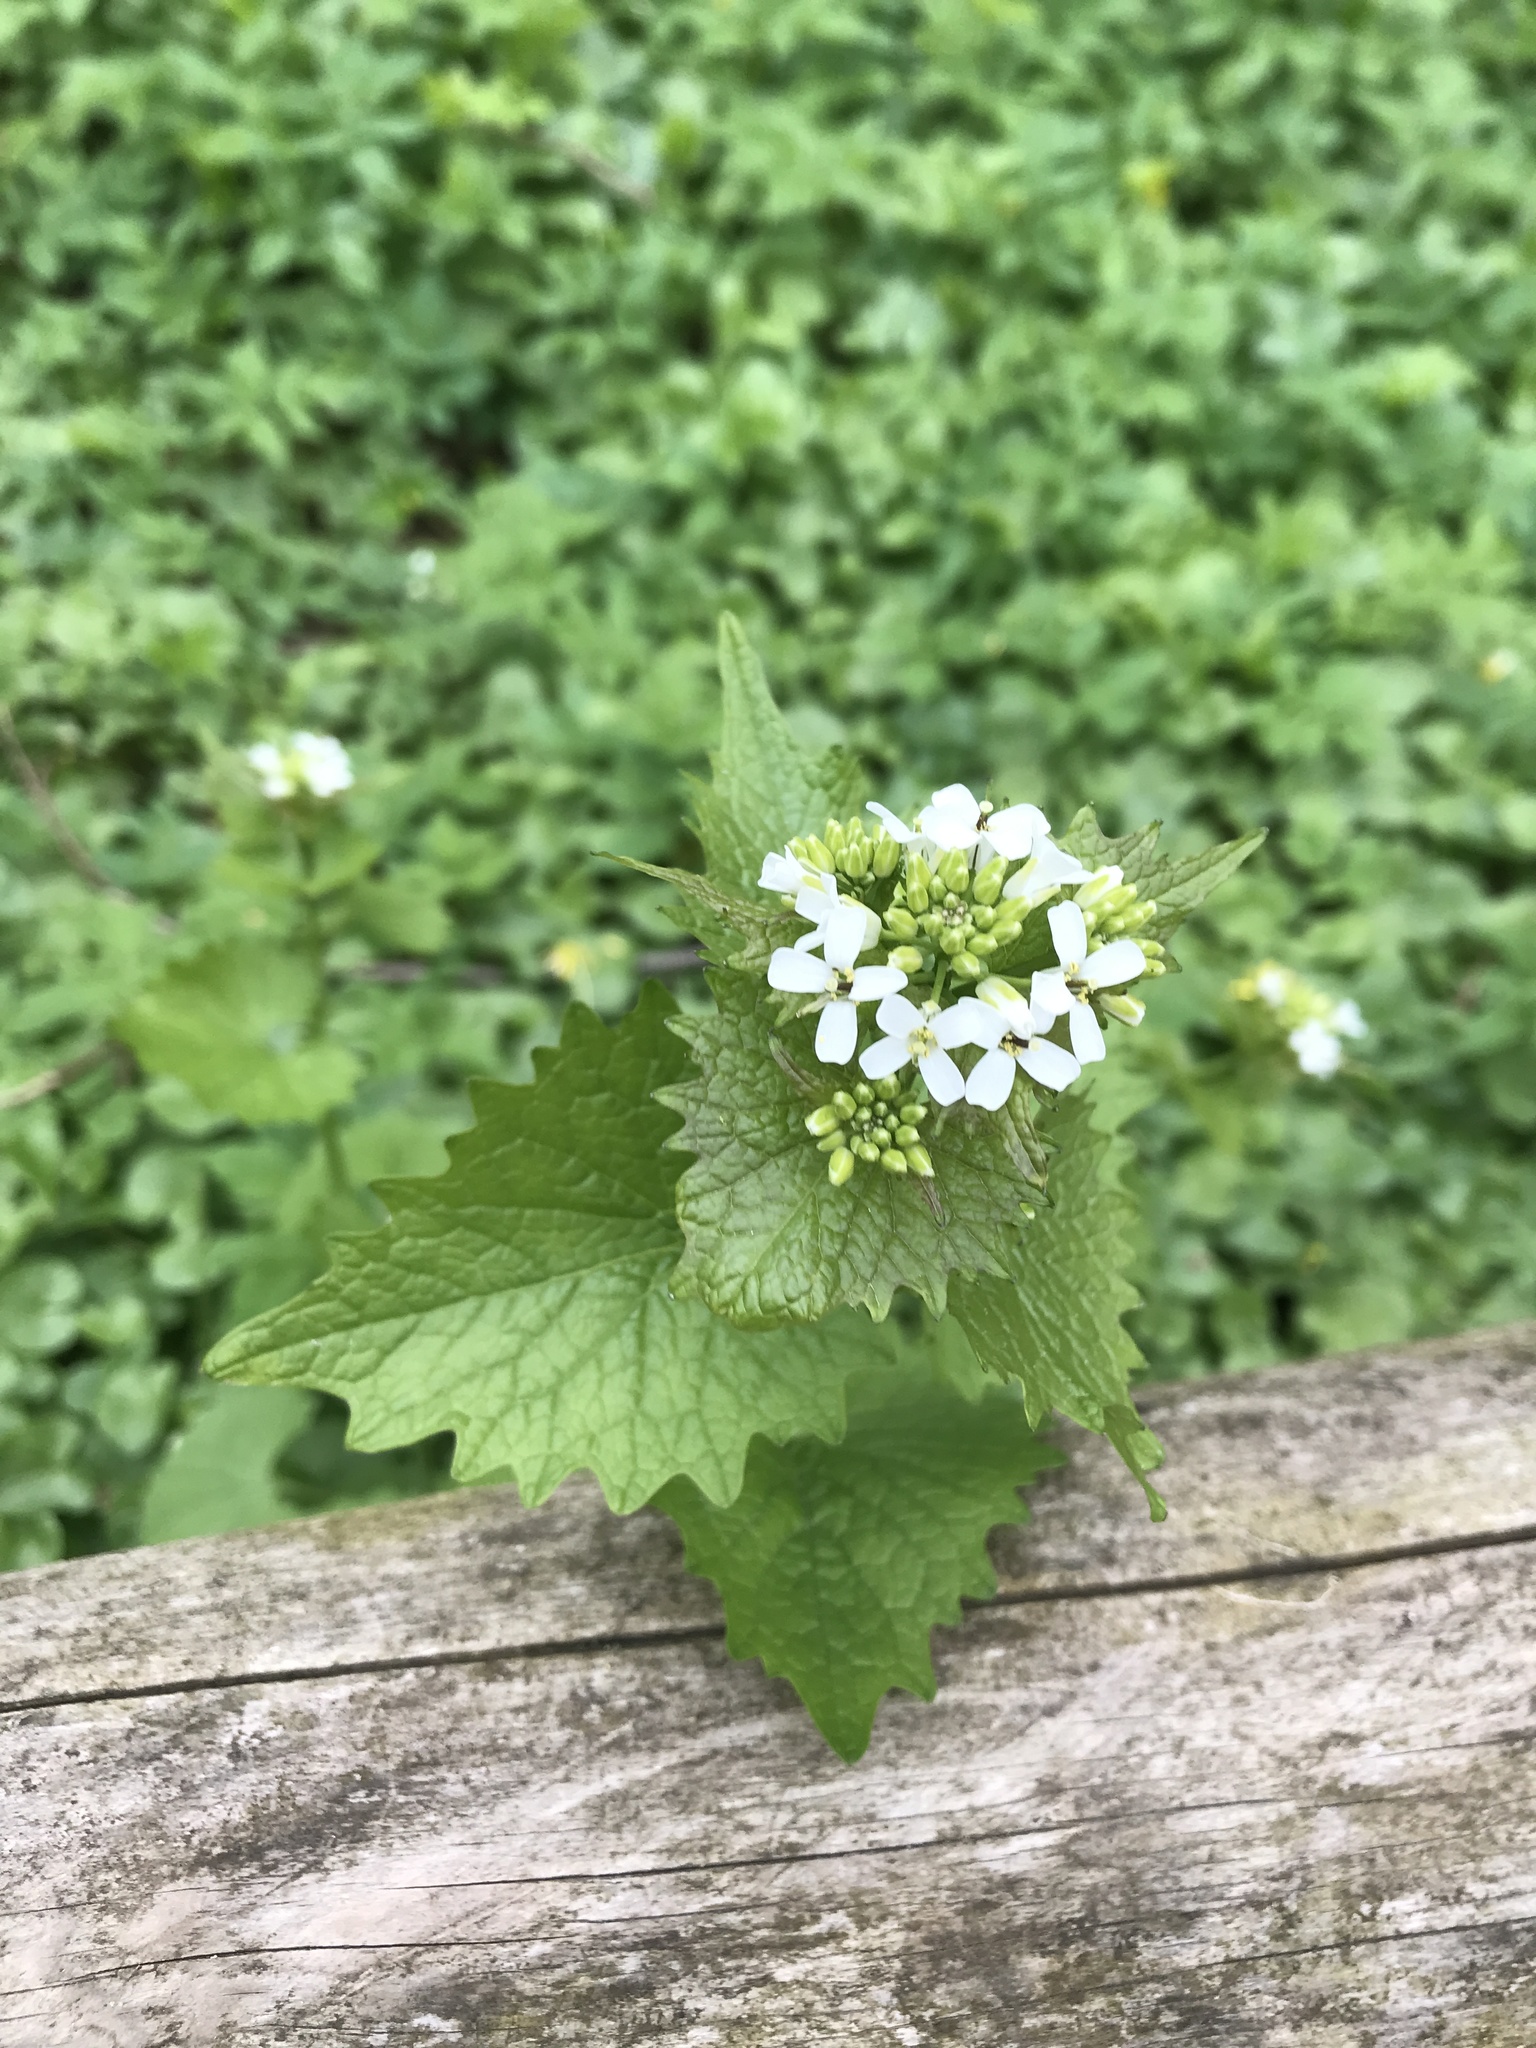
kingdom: Plantae
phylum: Tracheophyta
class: Magnoliopsida
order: Brassicales
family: Brassicaceae
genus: Alliaria
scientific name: Alliaria petiolata
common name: Garlic mustard
